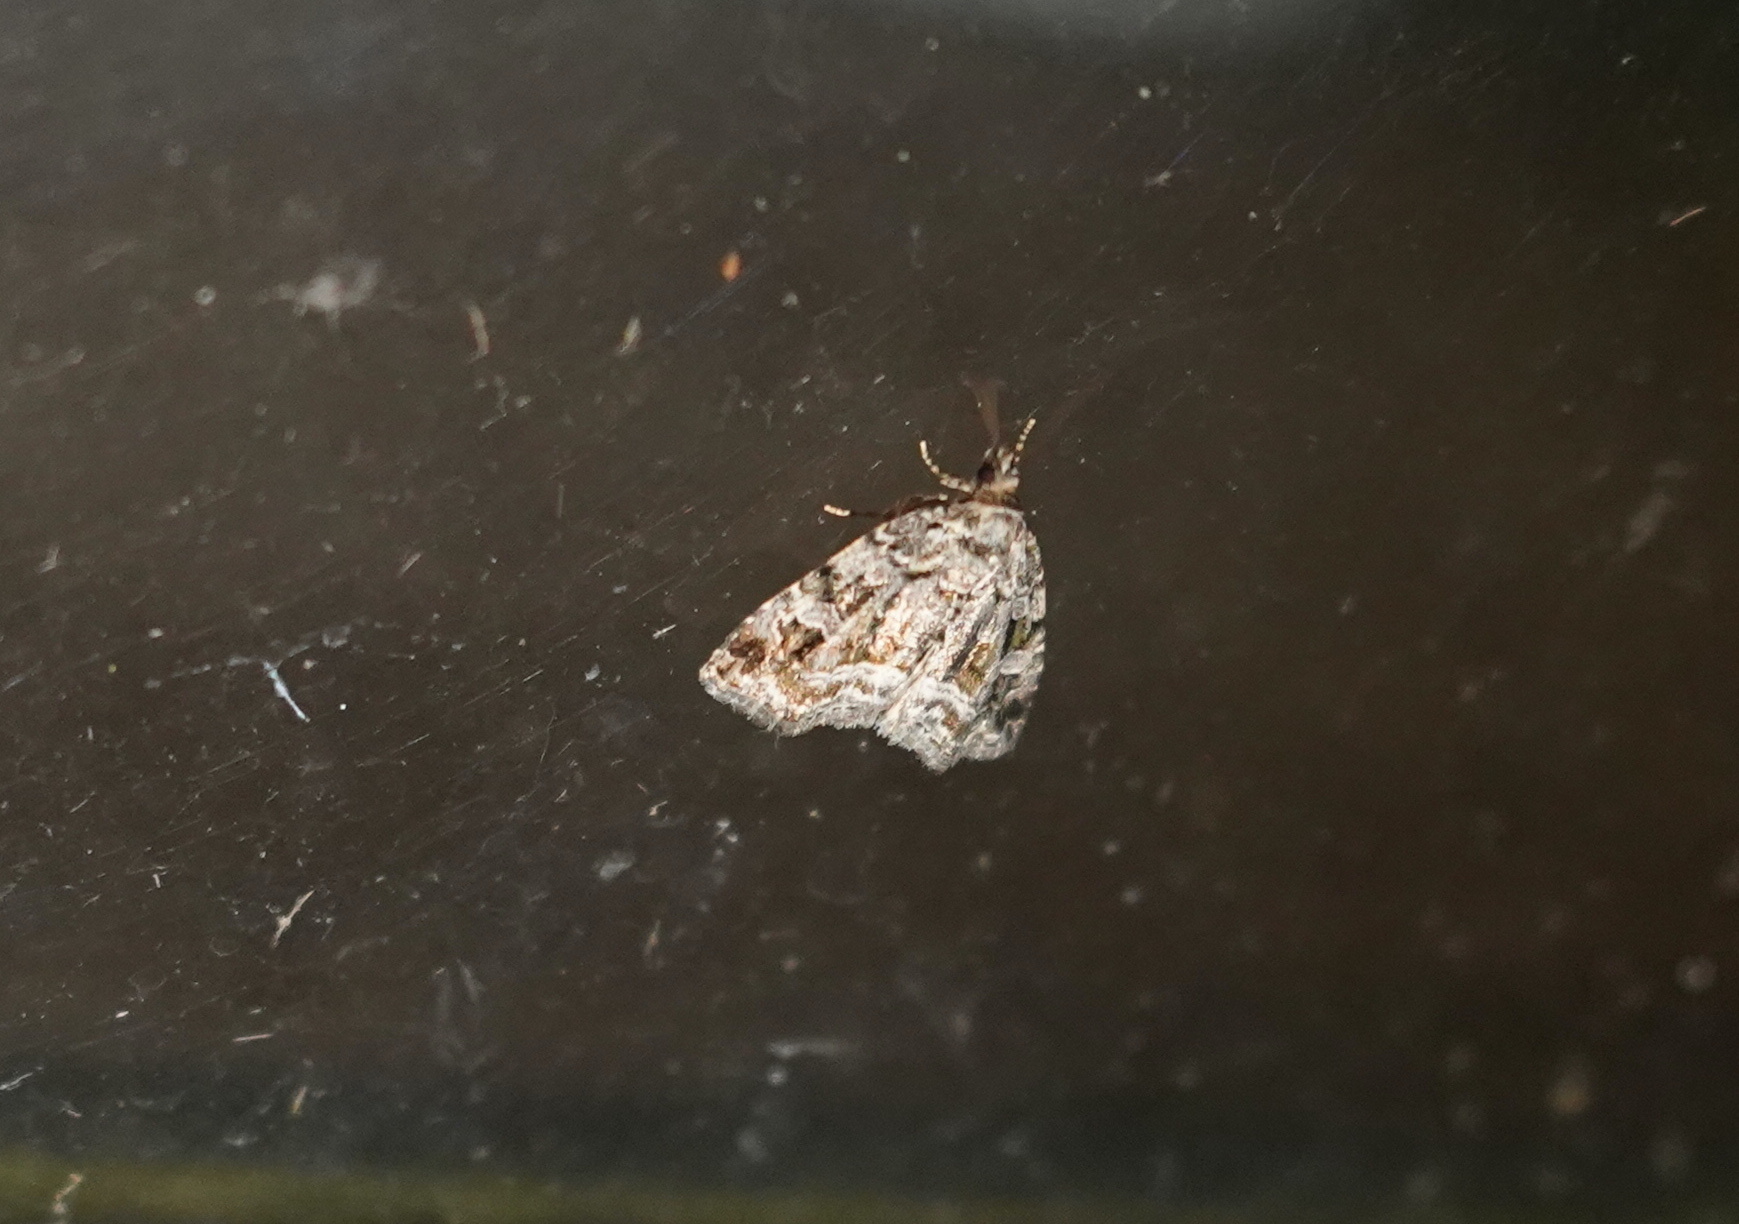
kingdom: Animalia
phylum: Arthropoda
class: Insecta
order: Lepidoptera
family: Noctuidae
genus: Protodeltote
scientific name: Protodeltote muscosula
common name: Large mossy glyph
